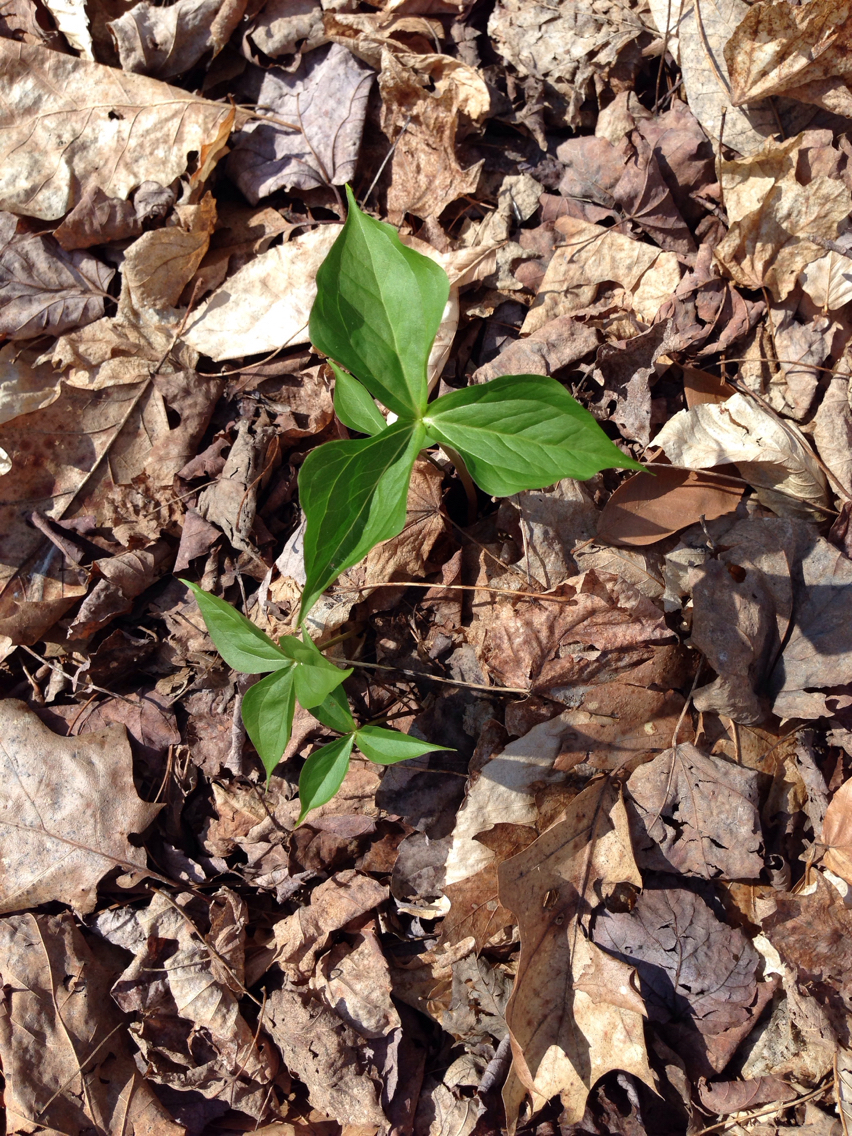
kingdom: Plantae
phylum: Tracheophyta
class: Liliopsida
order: Liliales
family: Melanthiaceae
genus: Trillium
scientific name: Trillium erectum
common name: Purple trillium
